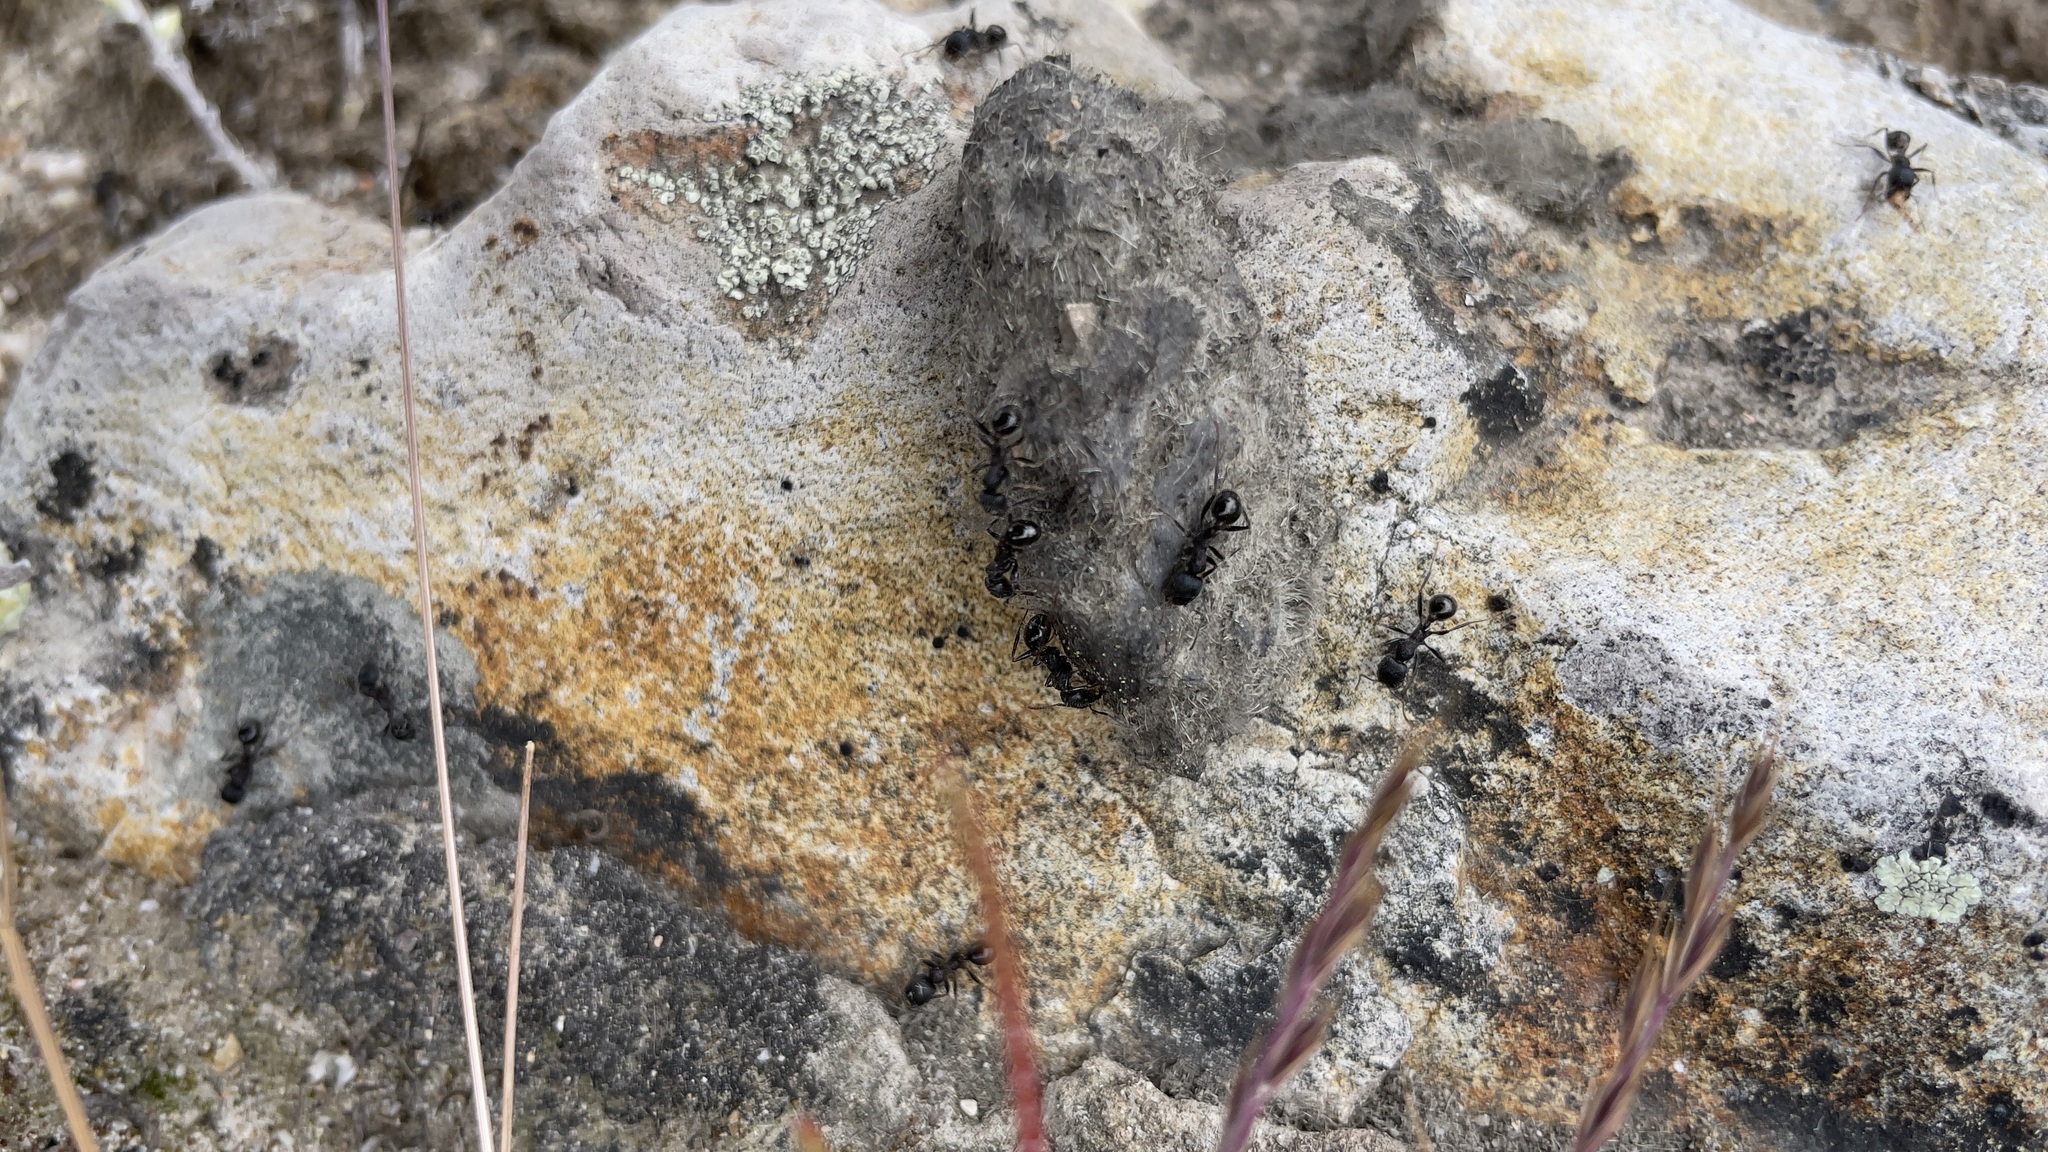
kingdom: Animalia
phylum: Arthropoda
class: Insecta
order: Hymenoptera
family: Formicidae
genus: Veromessor
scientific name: Veromessor andrei
